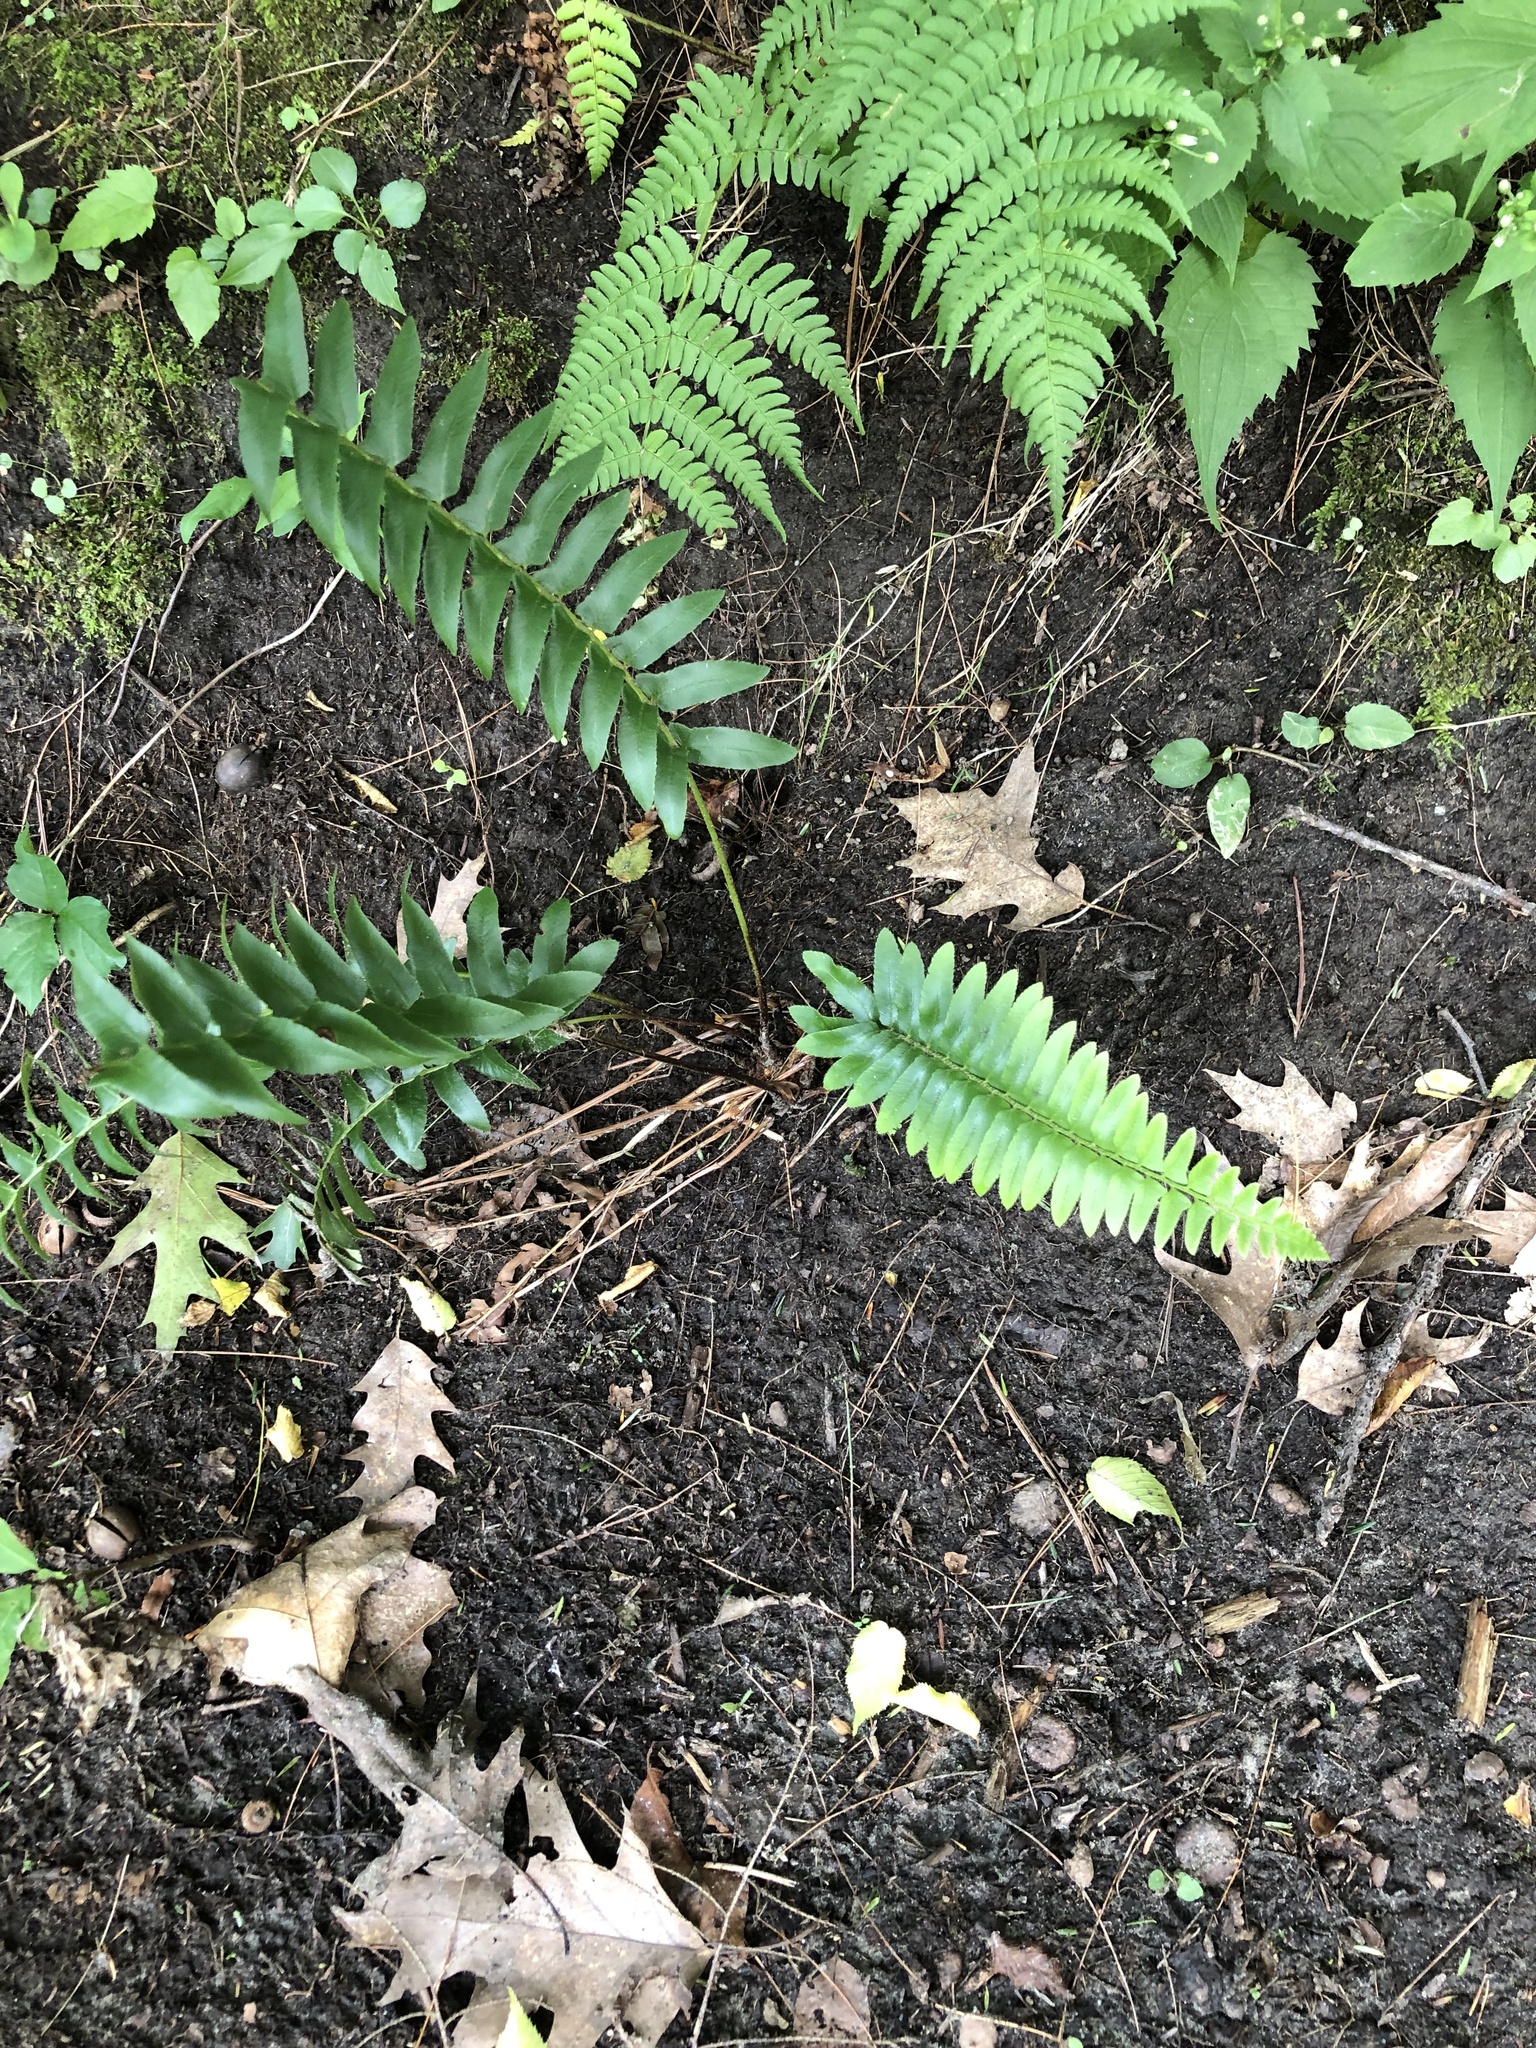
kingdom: Plantae
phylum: Tracheophyta
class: Polypodiopsida
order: Polypodiales
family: Dryopteridaceae
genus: Polystichum
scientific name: Polystichum acrostichoides
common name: Christmas fern
